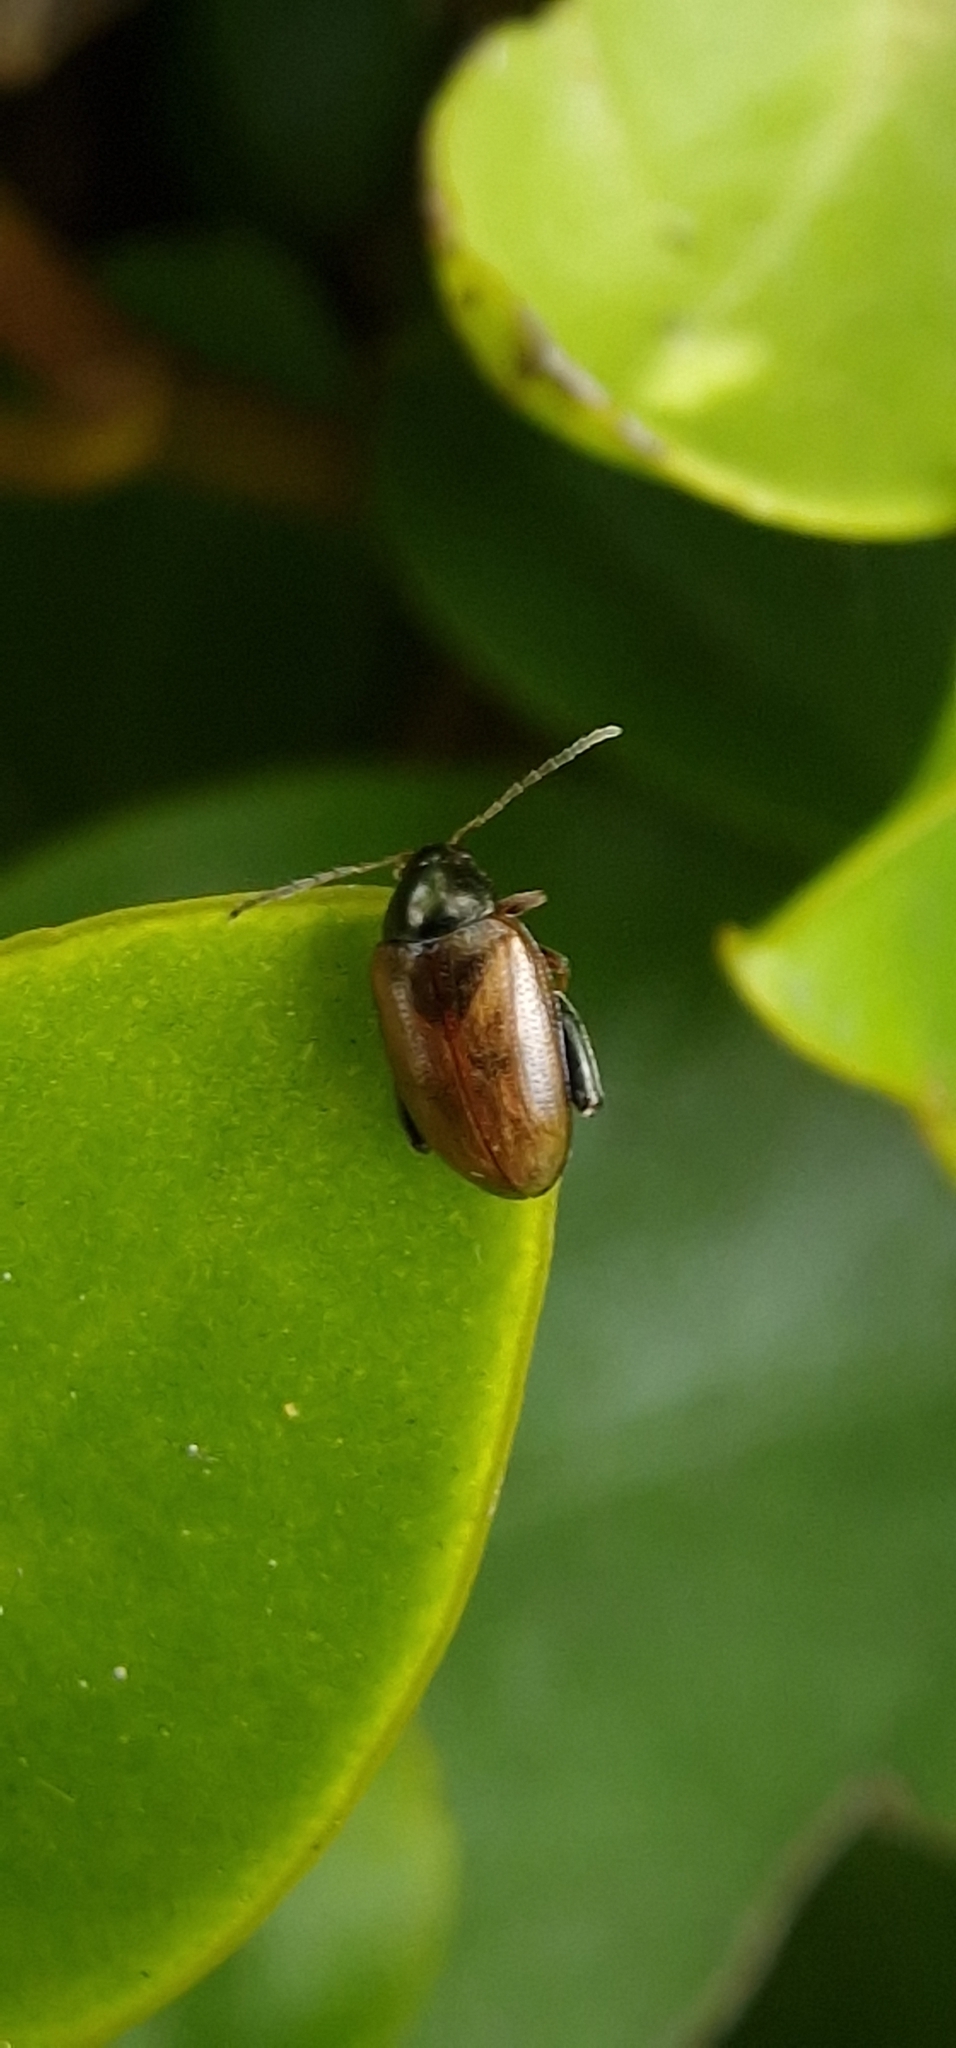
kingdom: Animalia
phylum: Arthropoda
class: Insecta
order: Coleoptera
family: Chrysomelidae
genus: Psylliodes
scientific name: Psylliodes chrysocephalus
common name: Cabbage-stem flea beetle
